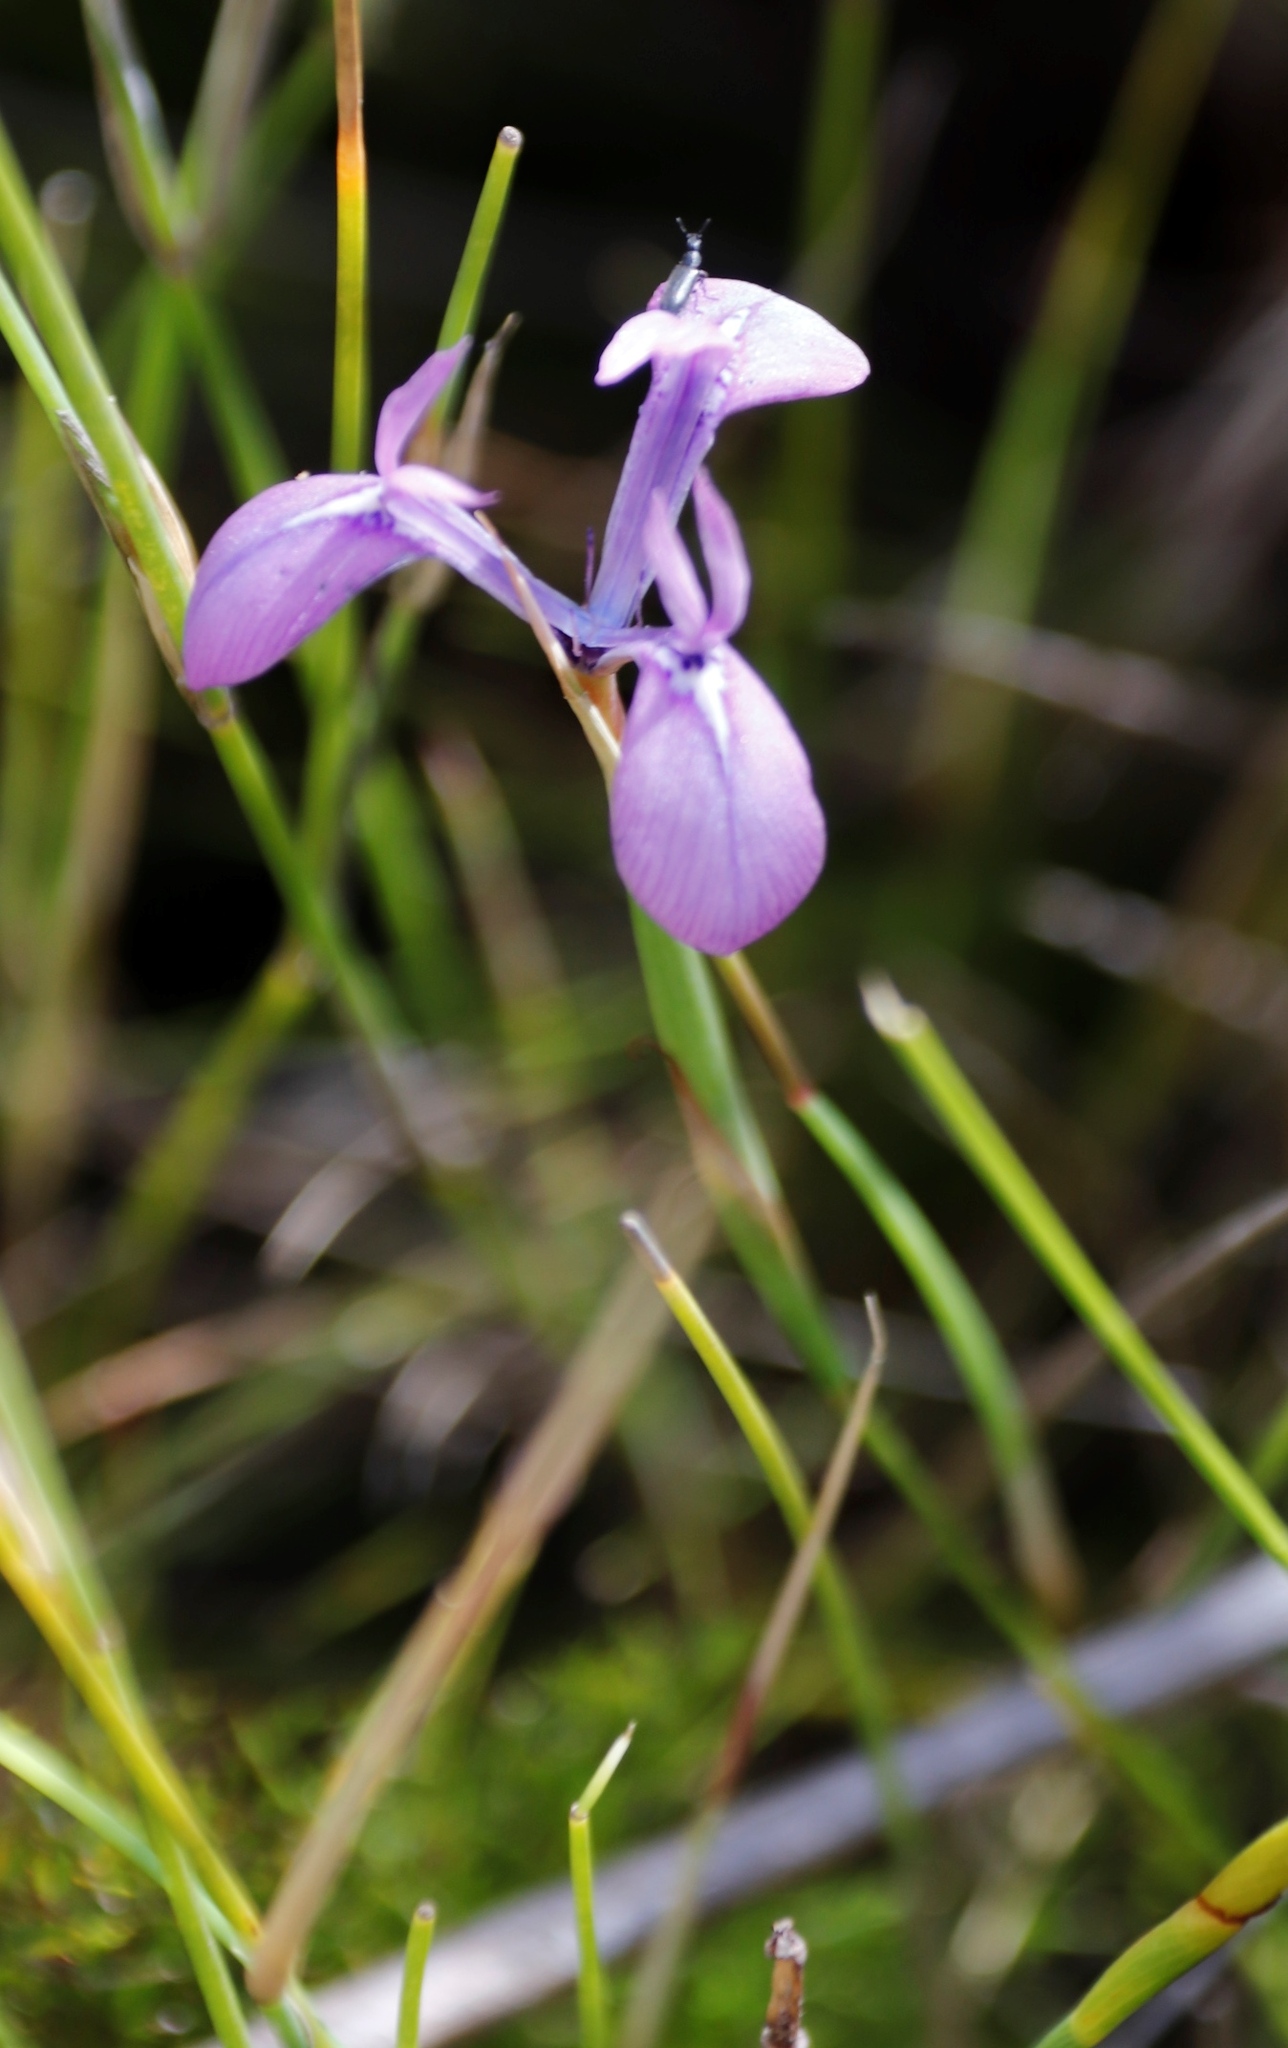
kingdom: Plantae
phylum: Tracheophyta
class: Liliopsida
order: Asparagales
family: Iridaceae
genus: Moraea
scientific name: Moraea tripetala
